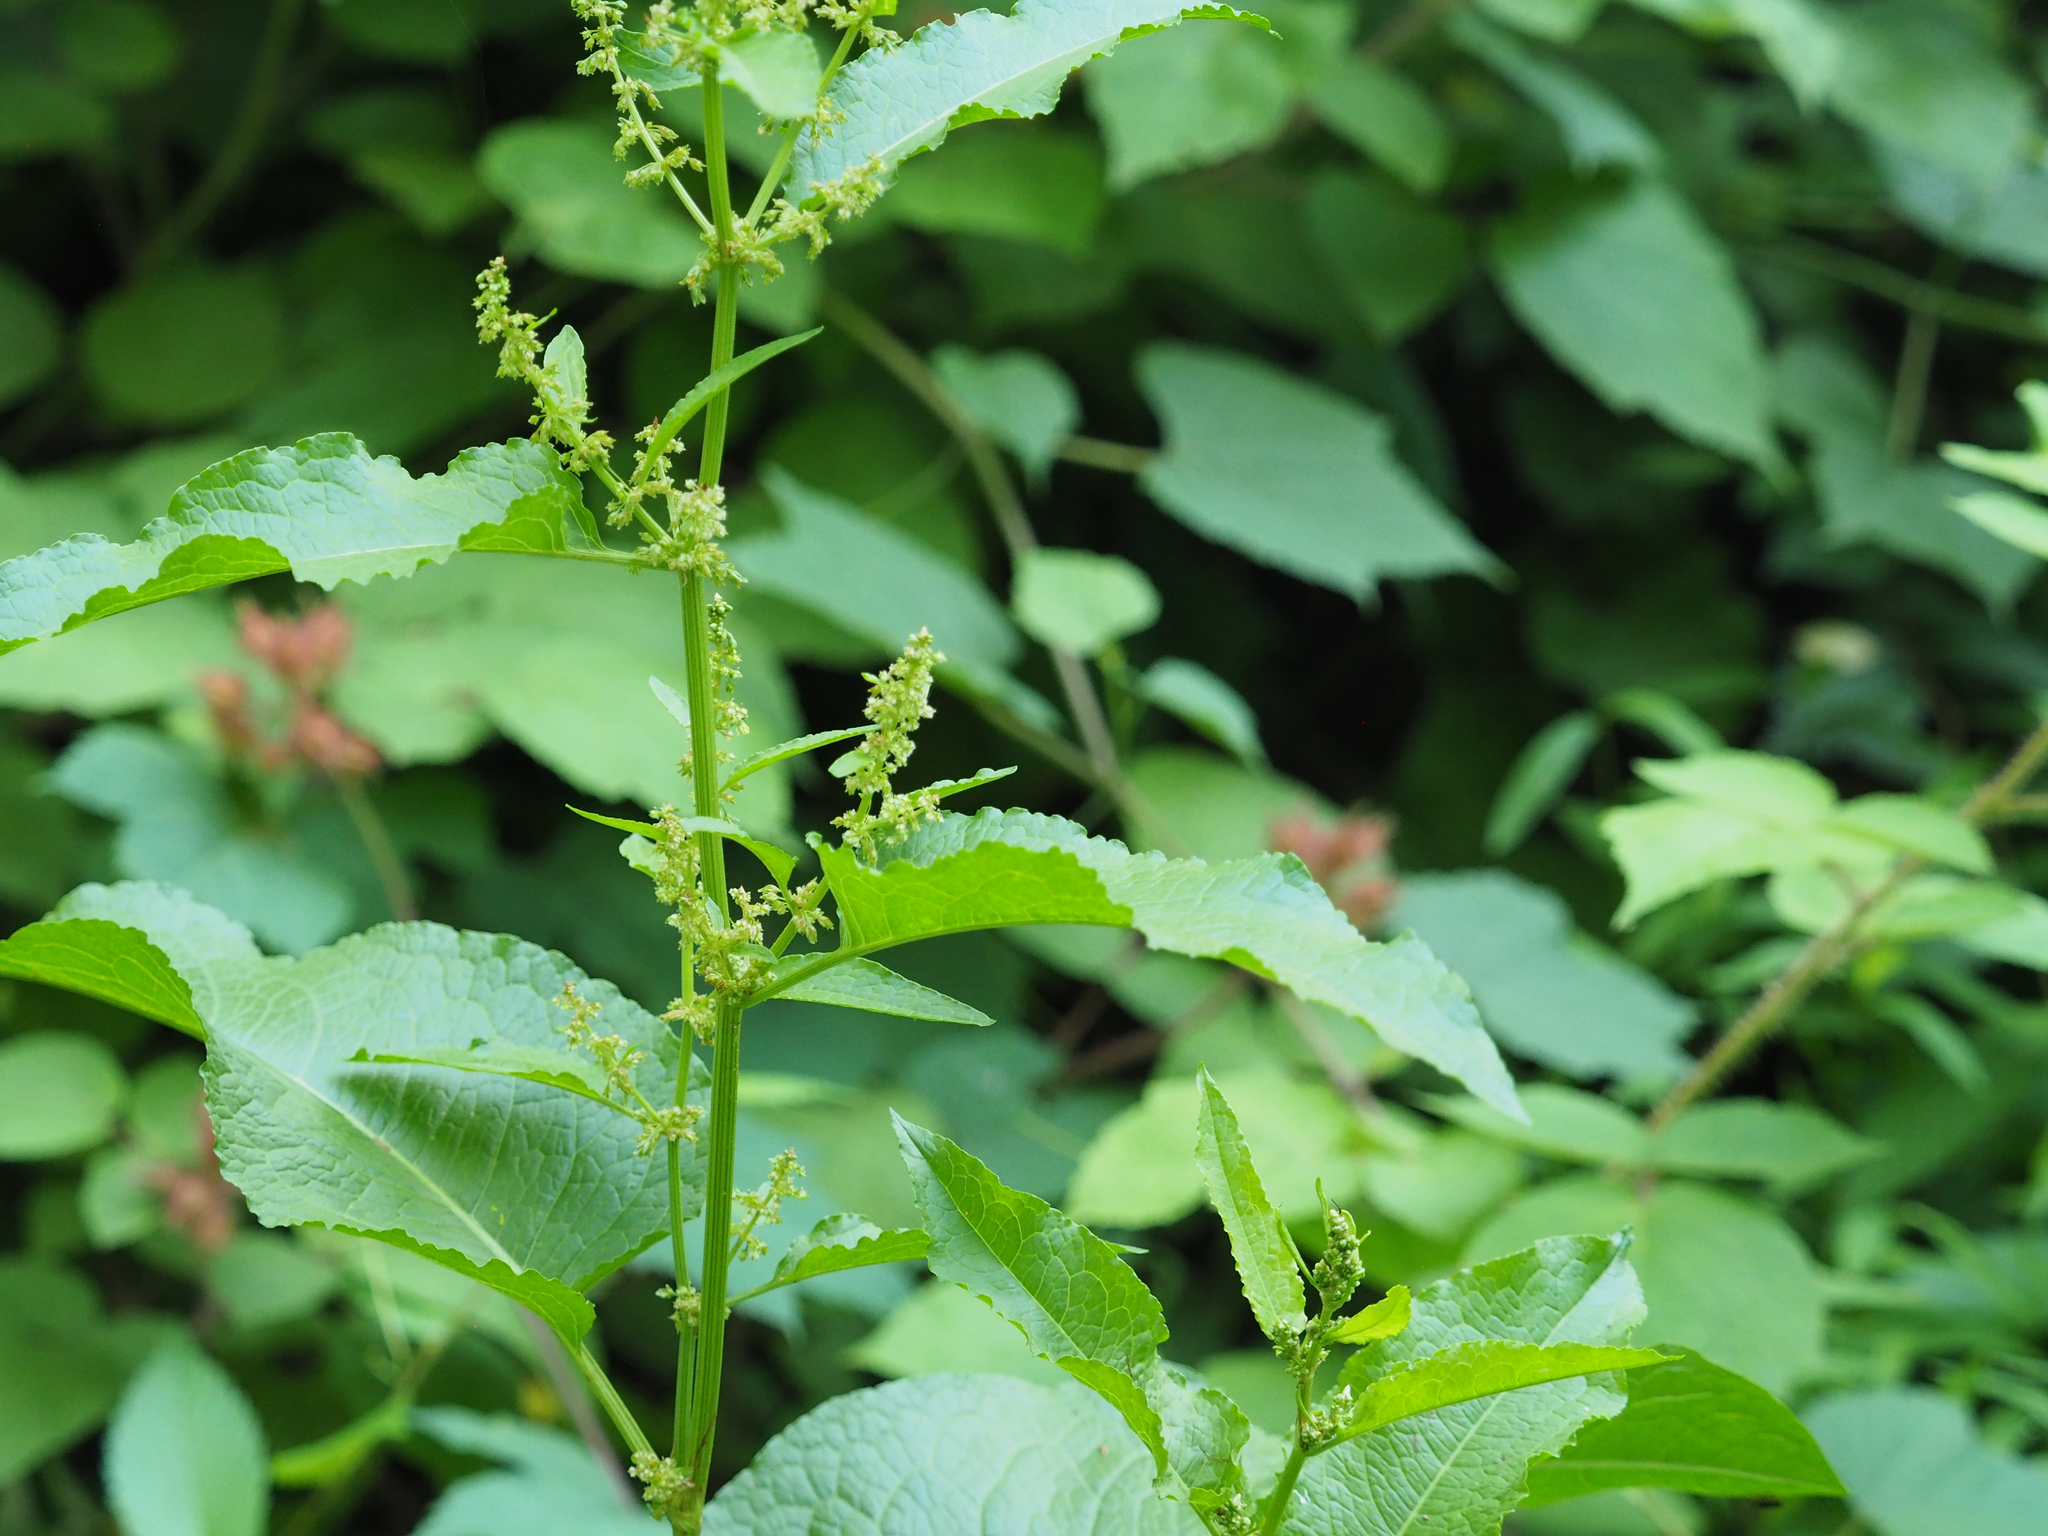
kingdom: Plantae
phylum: Tracheophyta
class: Magnoliopsida
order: Caryophyllales
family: Polygonaceae
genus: Rumex
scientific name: Rumex obtusifolius
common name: Bitter dock
